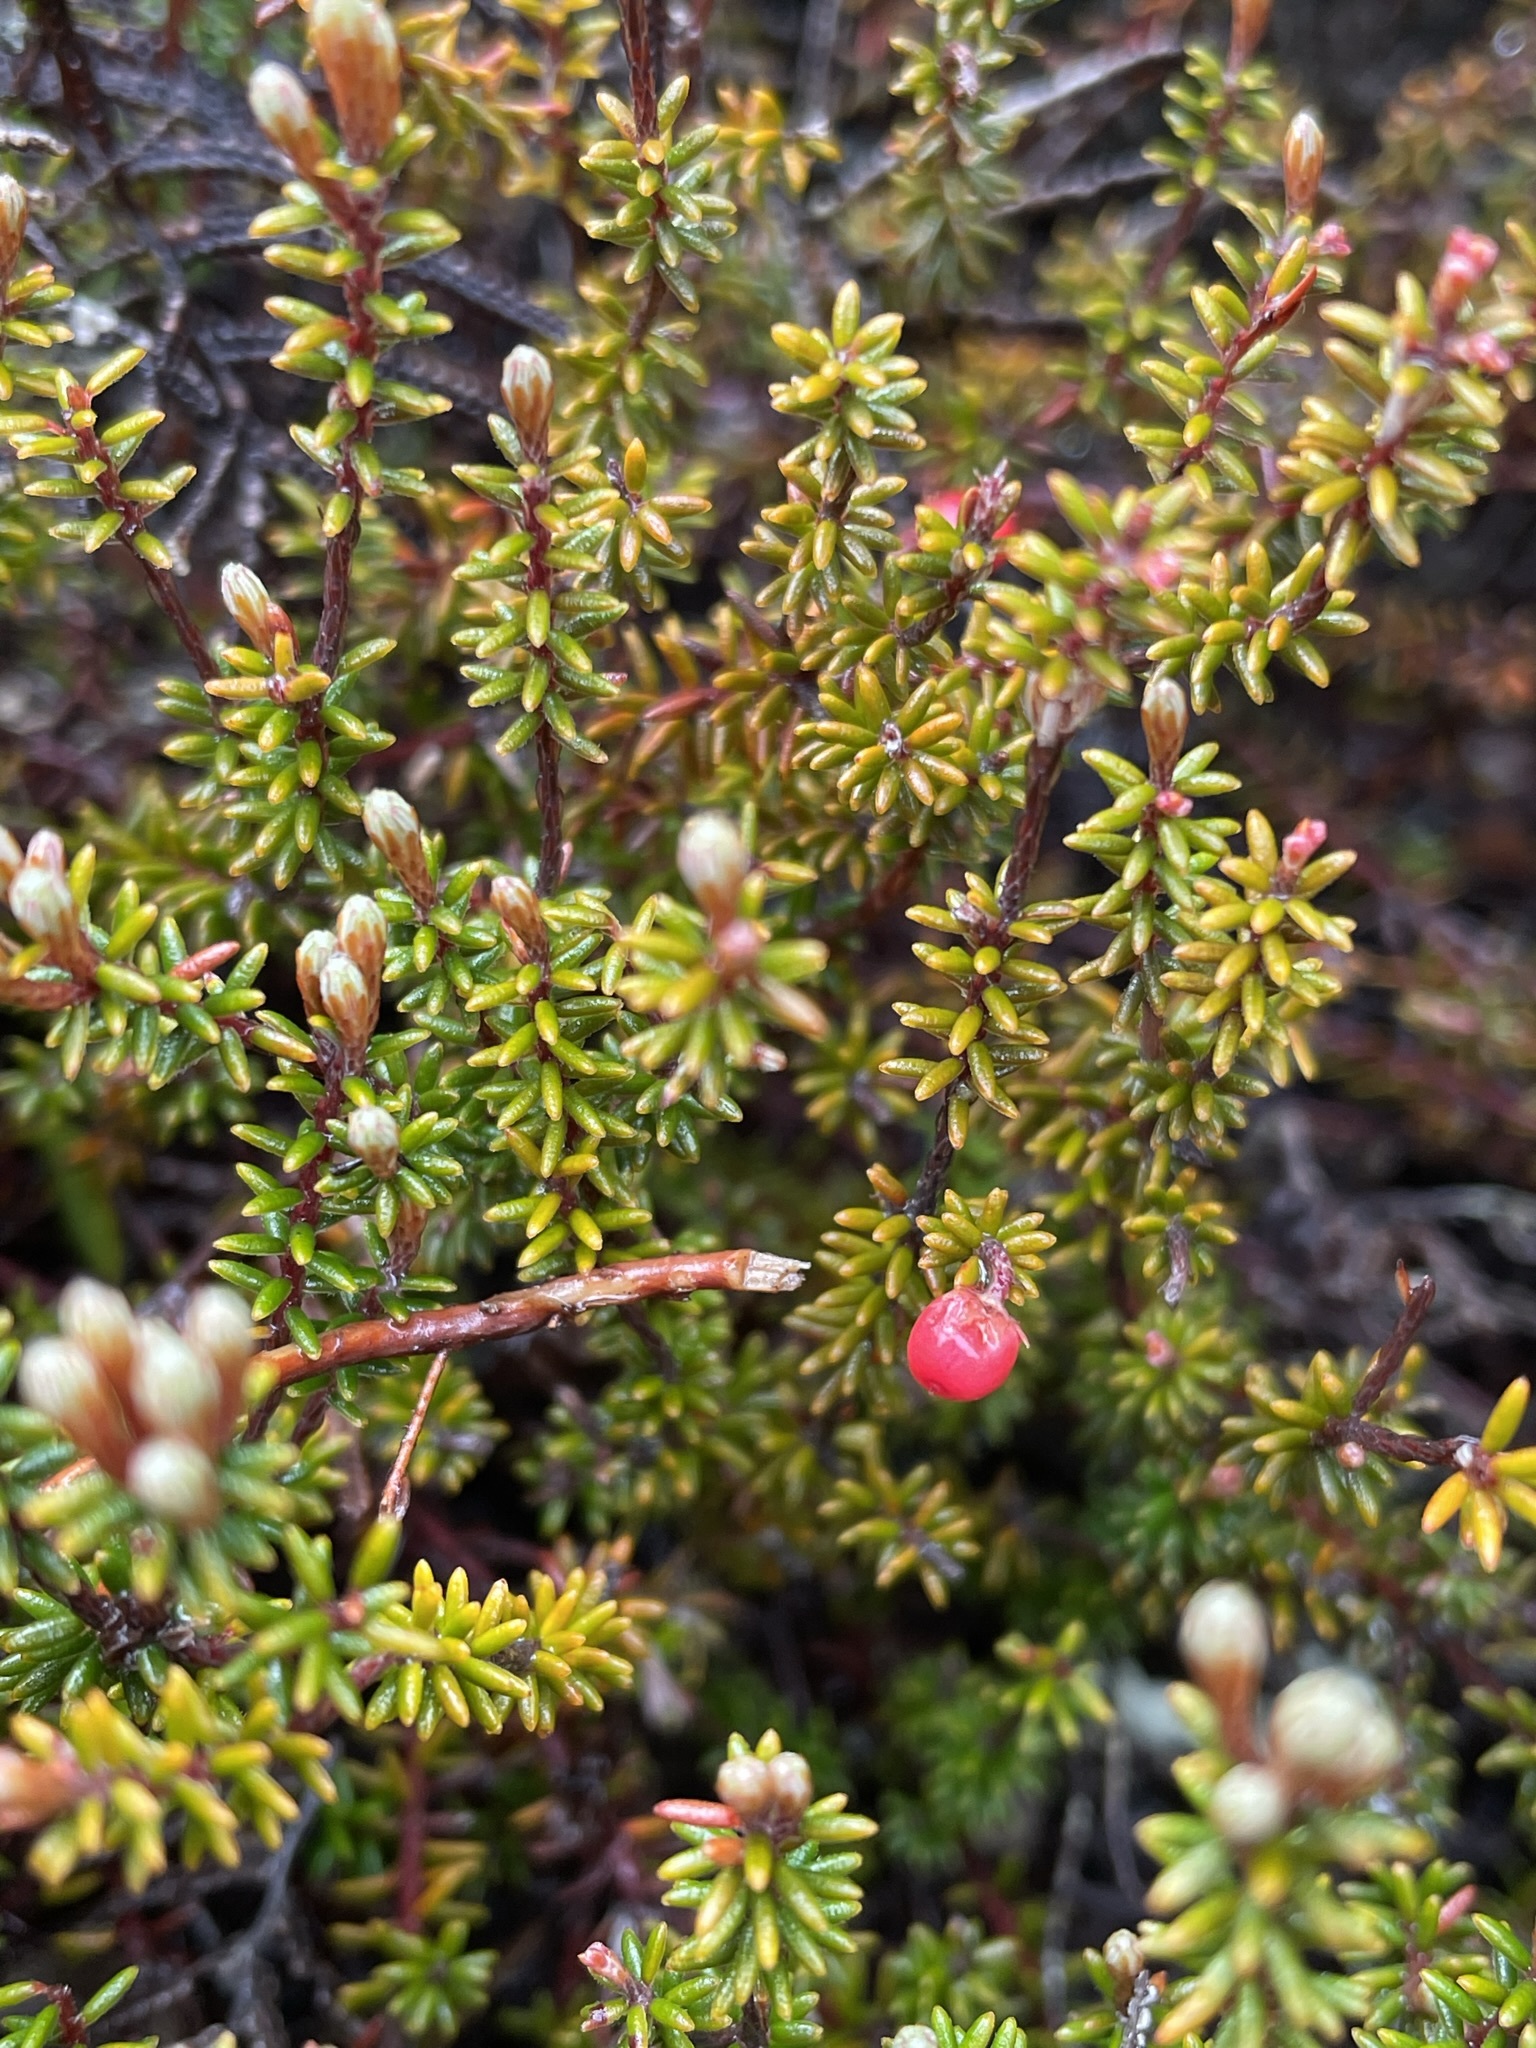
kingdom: Plantae
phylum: Tracheophyta
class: Magnoliopsida
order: Ericales
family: Ericaceae
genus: Androstoma
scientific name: Androstoma empetrifolia
